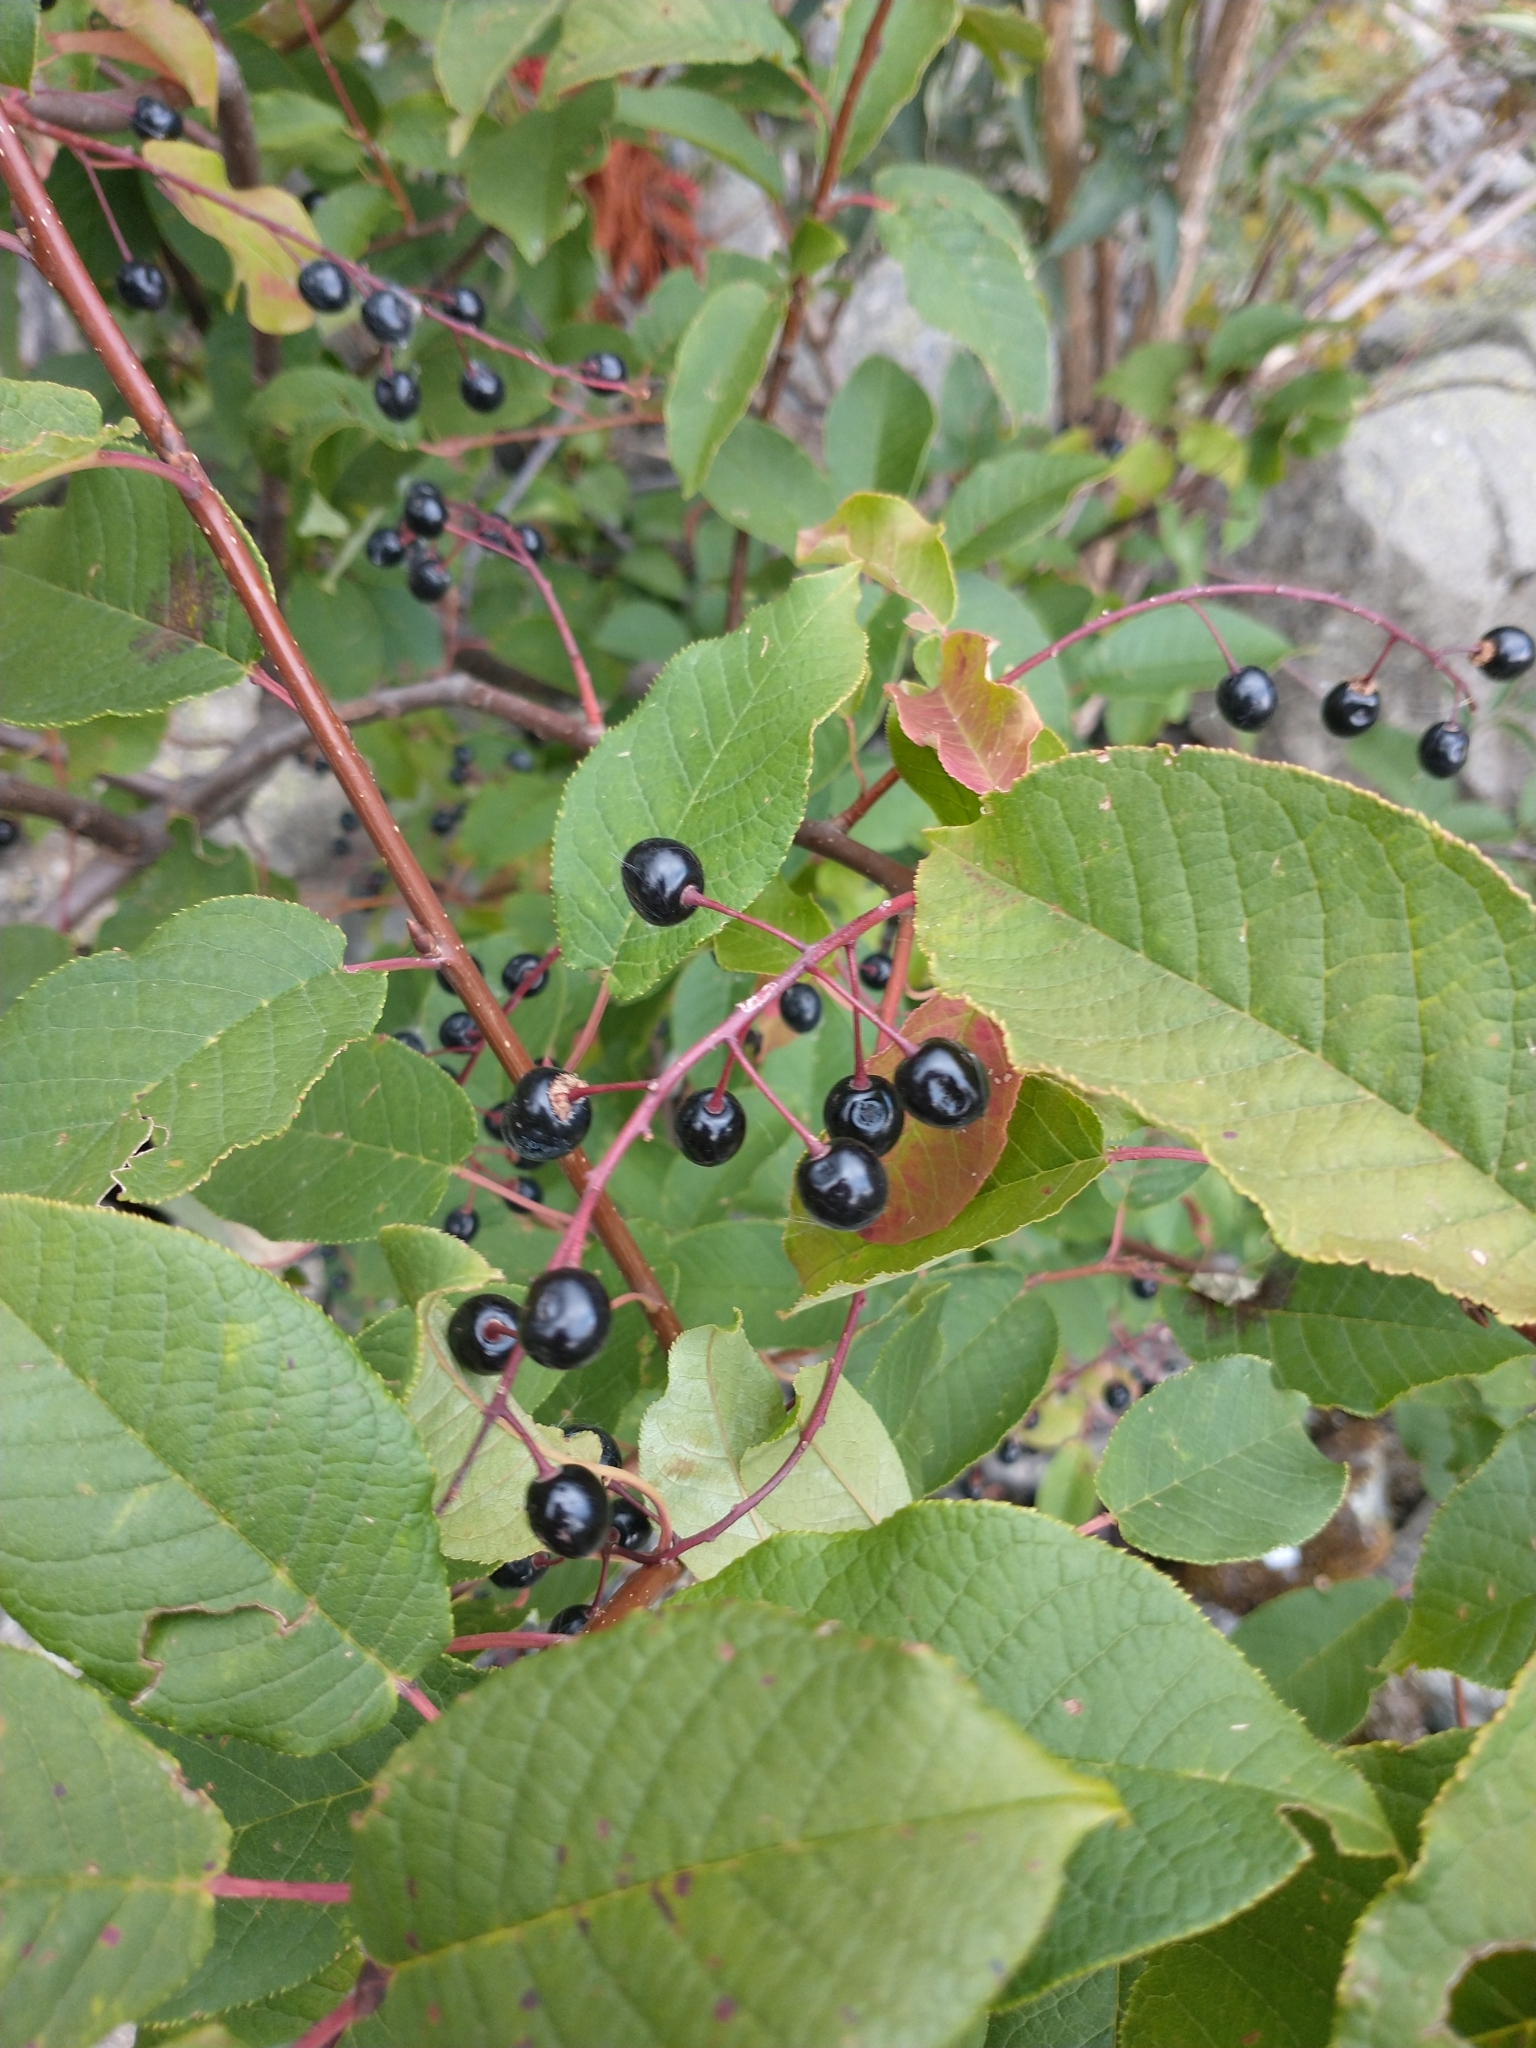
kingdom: Plantae
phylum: Tracheophyta
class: Magnoliopsida
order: Rosales
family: Rosaceae
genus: Prunus
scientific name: Prunus padus
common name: Bird cherry
